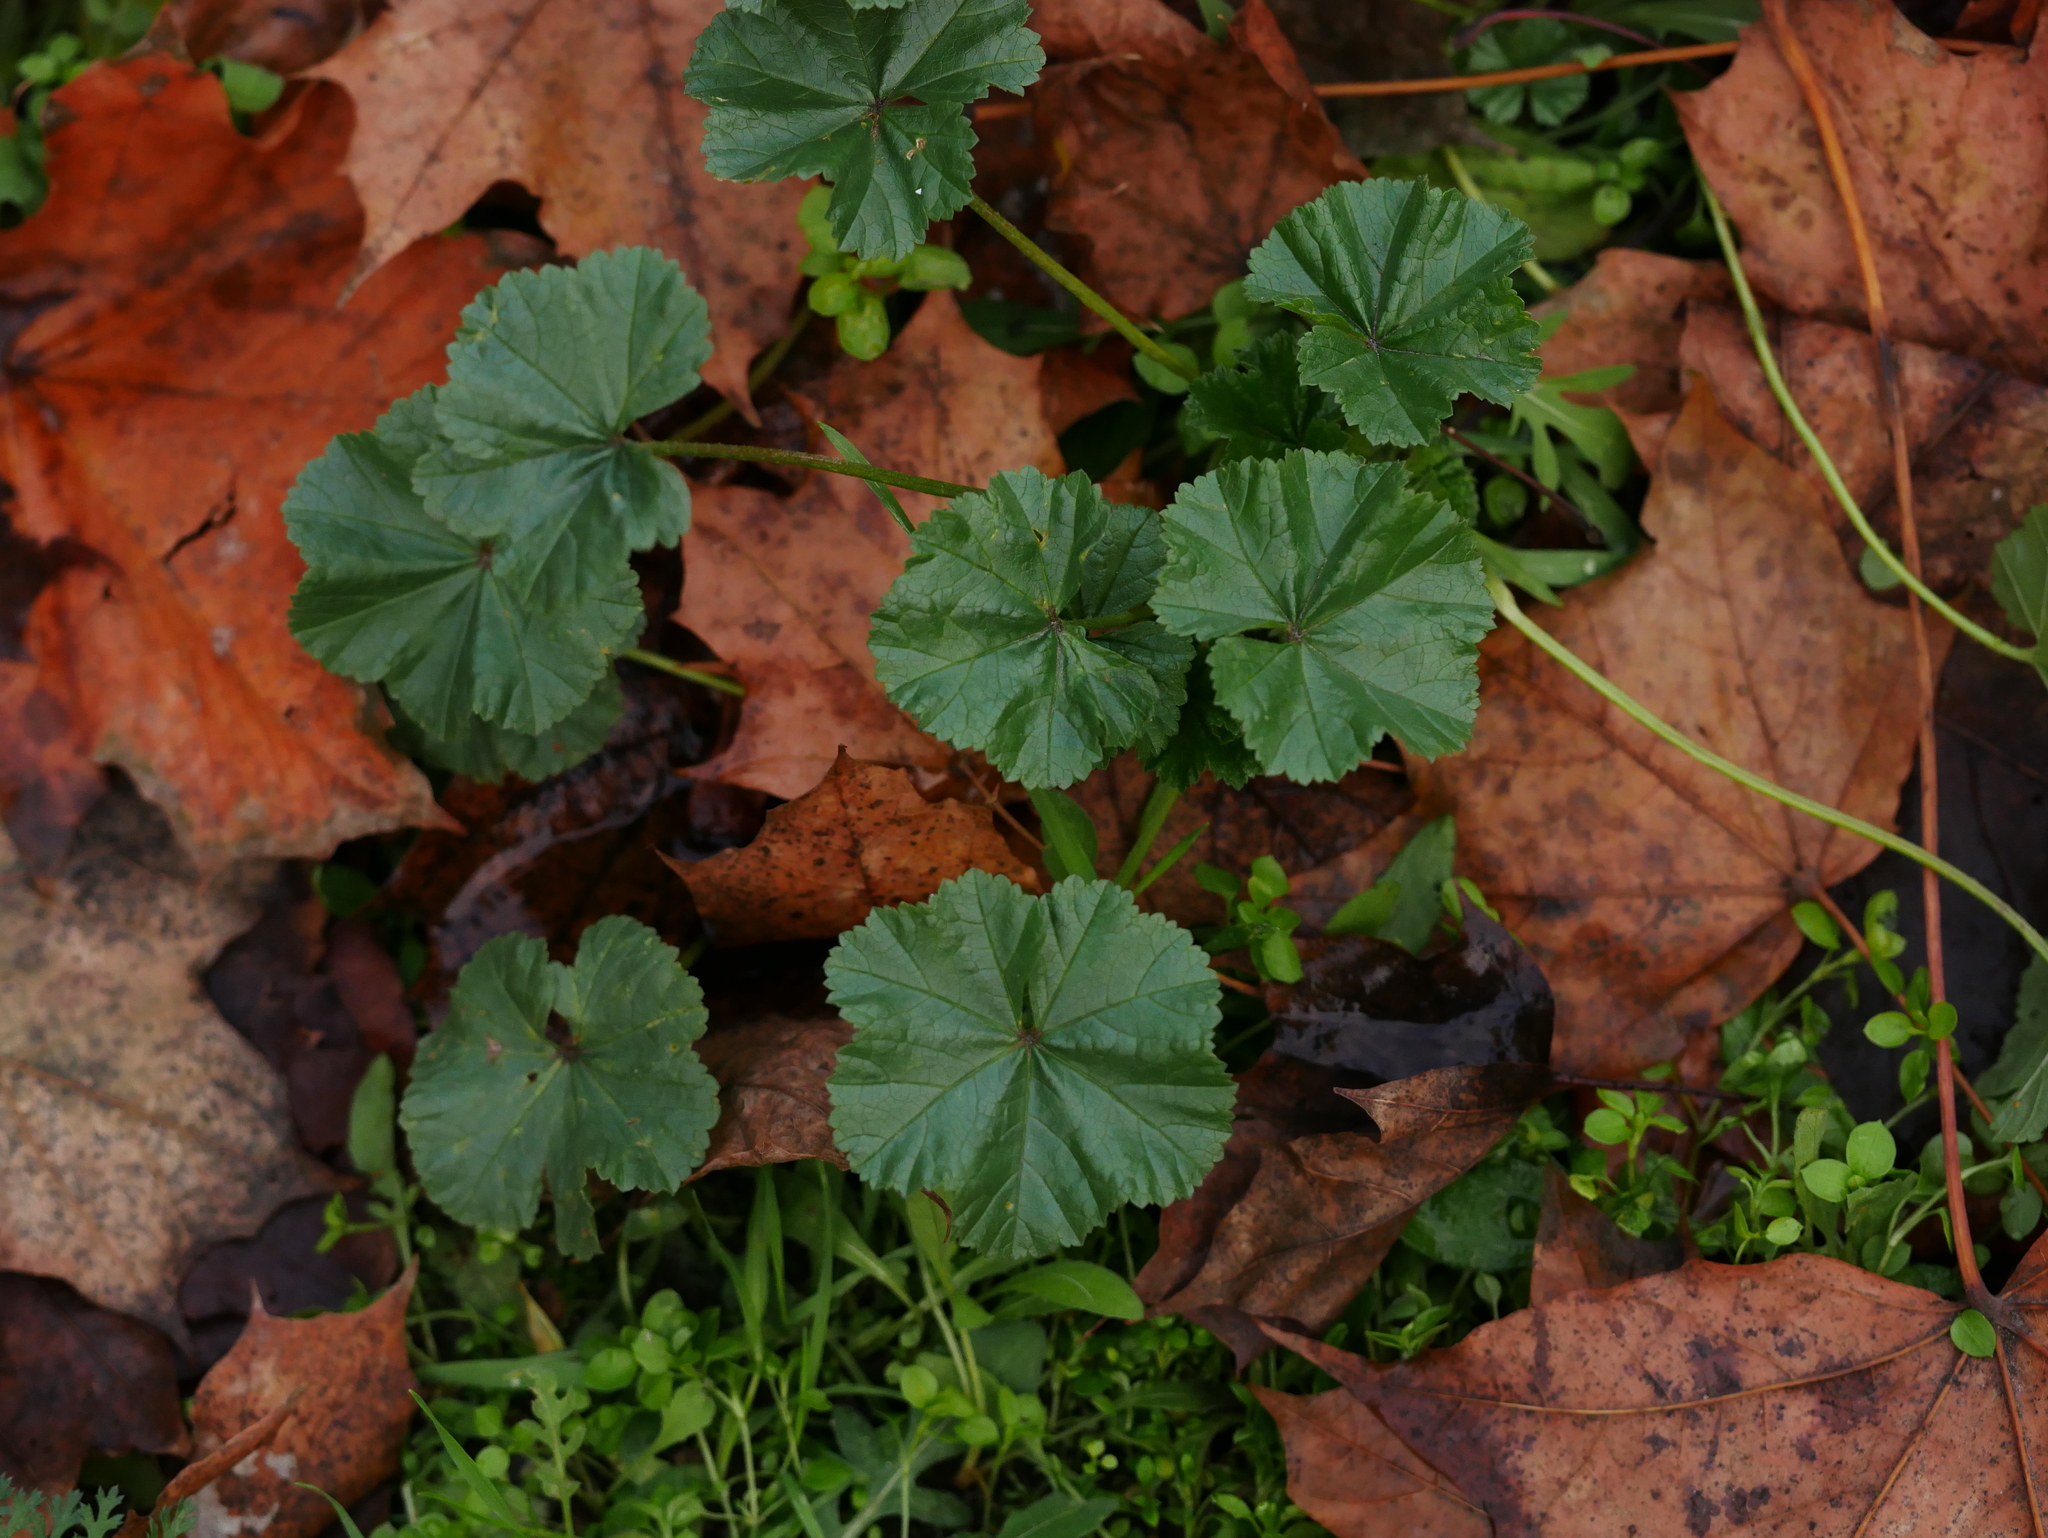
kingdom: Plantae
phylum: Tracheophyta
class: Magnoliopsida
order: Malvales
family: Malvaceae
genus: Malva
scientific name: Malva neglecta
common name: Common mallow
